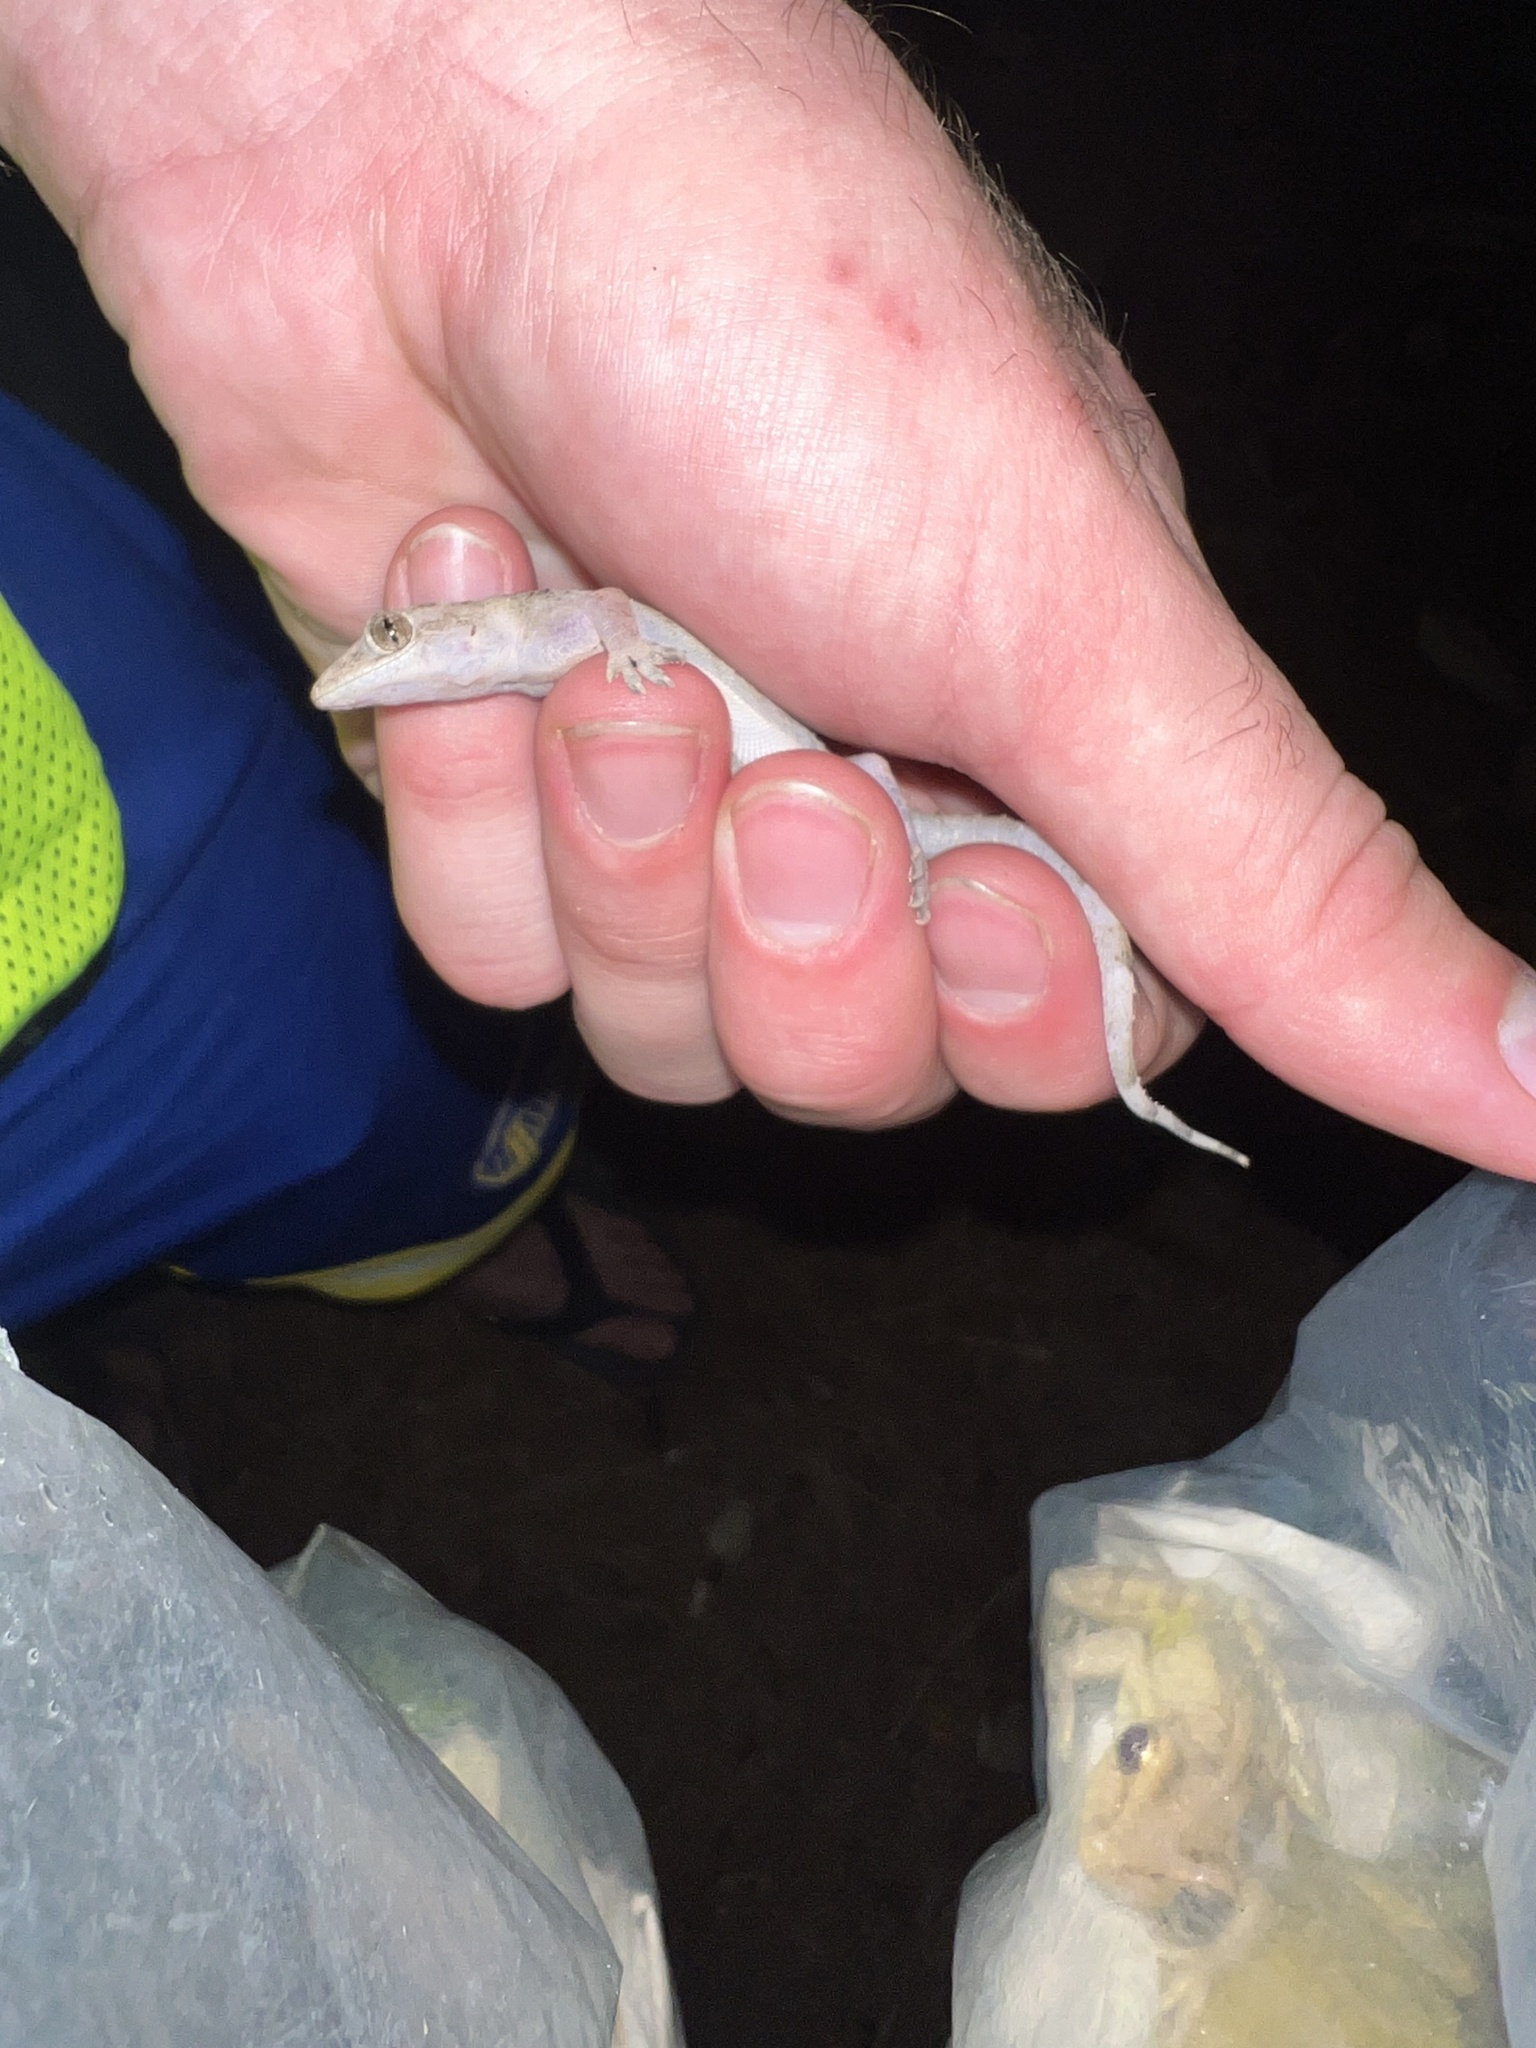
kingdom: Animalia
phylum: Chordata
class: Squamata
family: Gekkonidae
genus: Hemidactylus
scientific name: Hemidactylus mabouia
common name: House gecko
